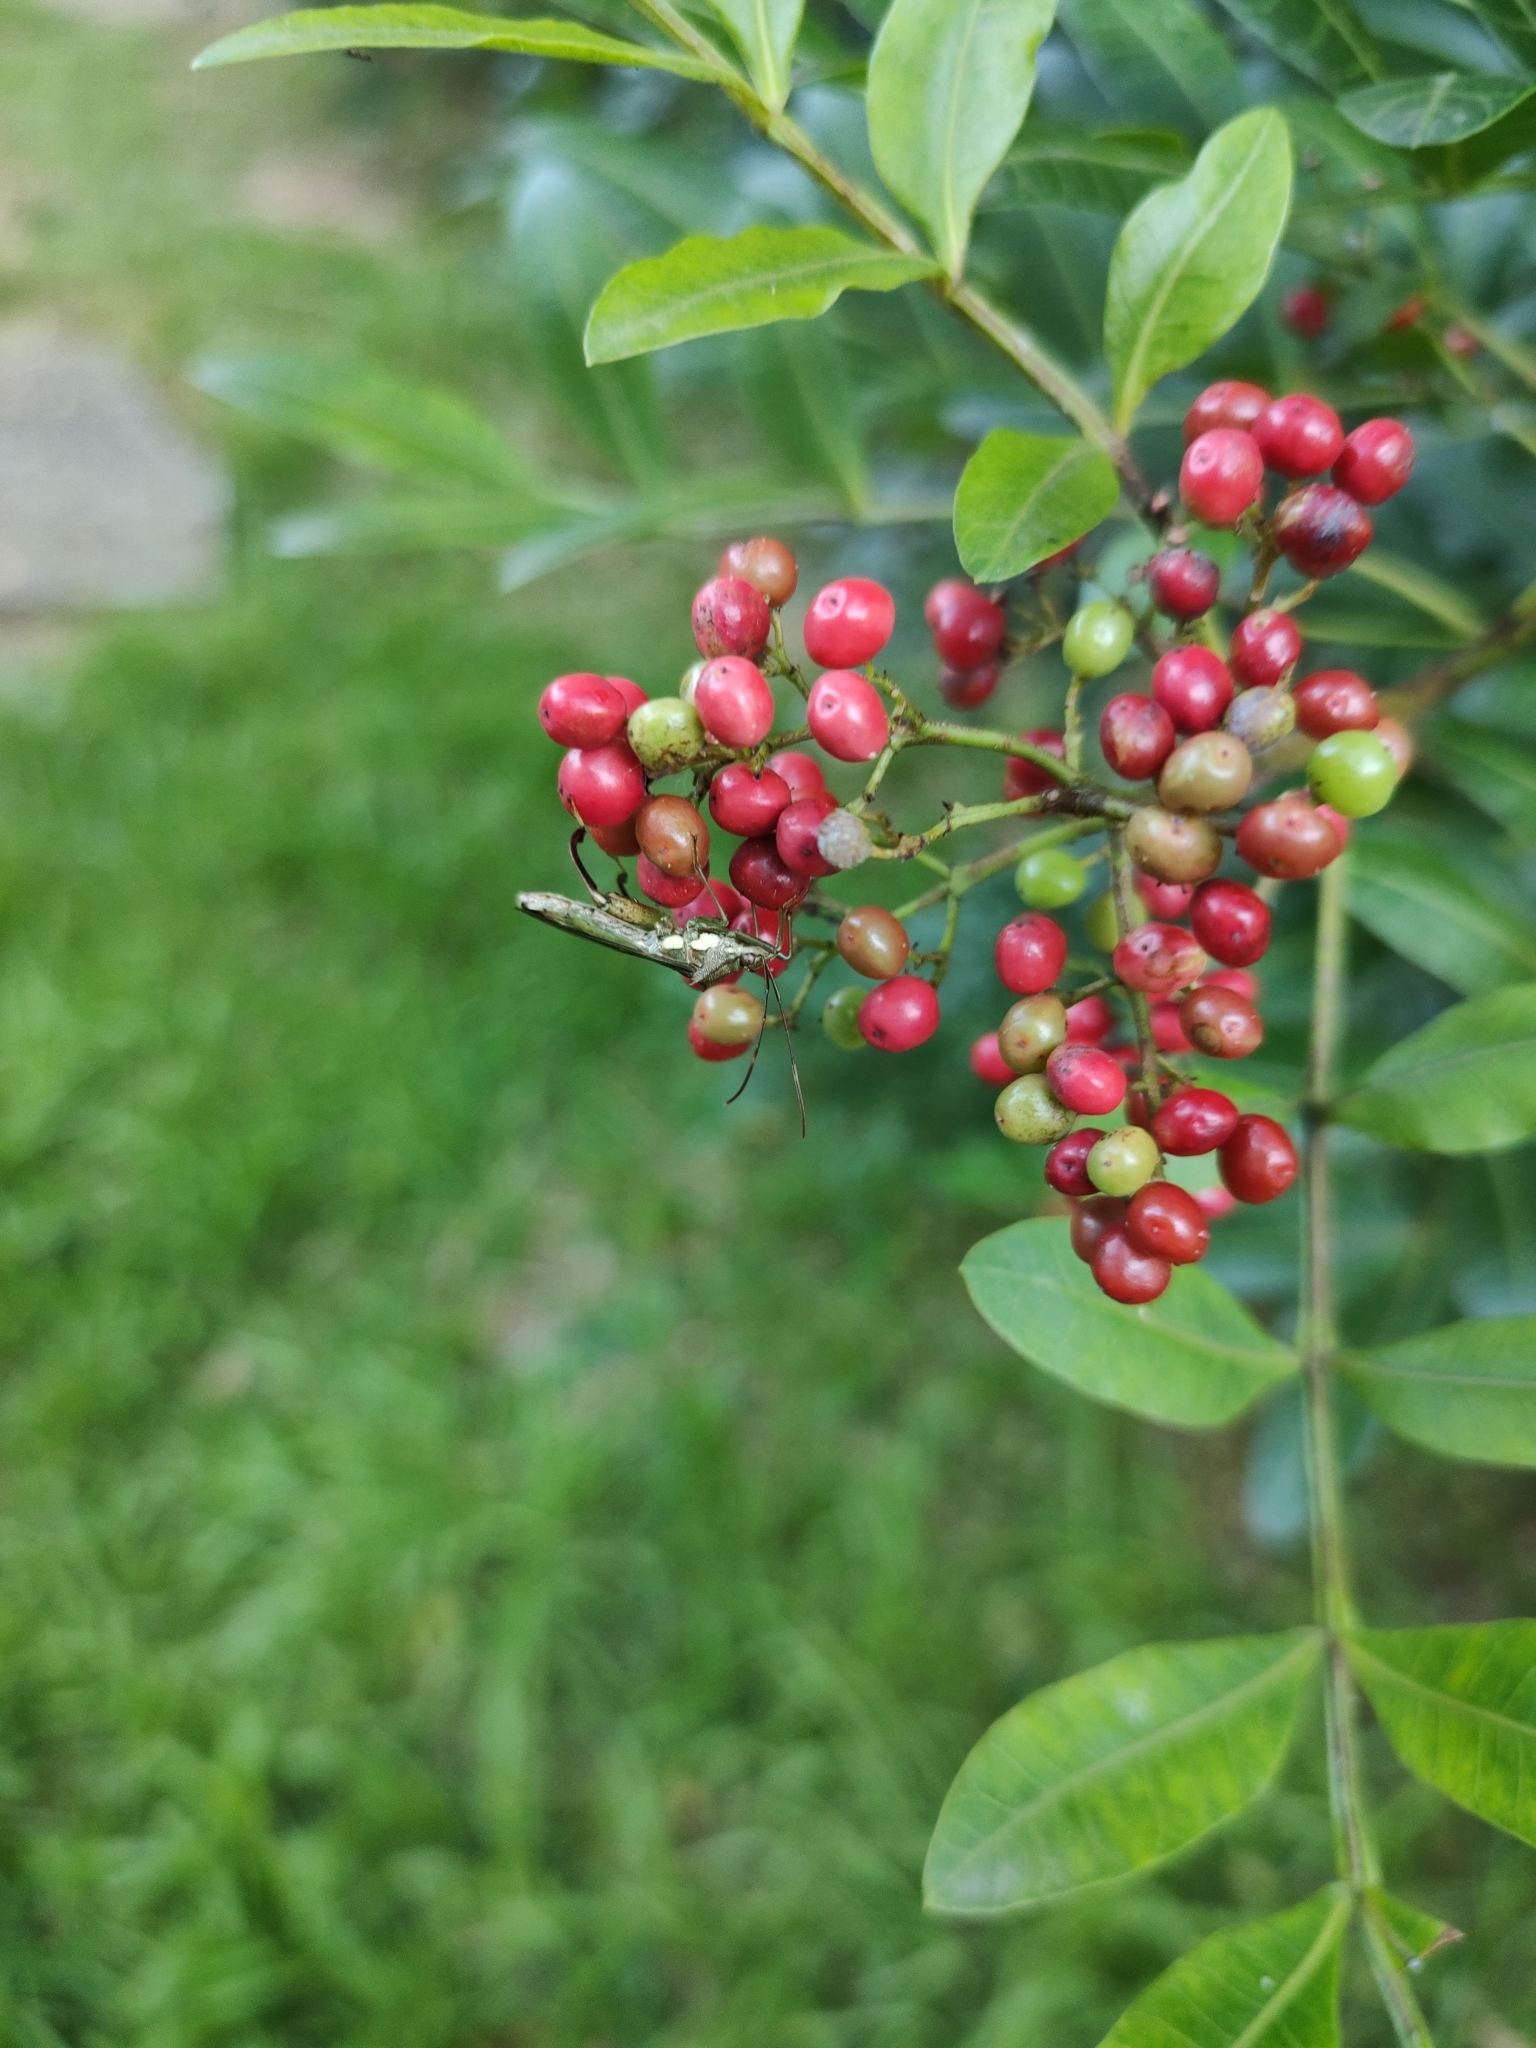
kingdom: Plantae
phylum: Tracheophyta
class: Magnoliopsida
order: Sapindales
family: Anacardiaceae
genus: Schinus
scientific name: Schinus terebinthifolia
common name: Brazilian peppertree
